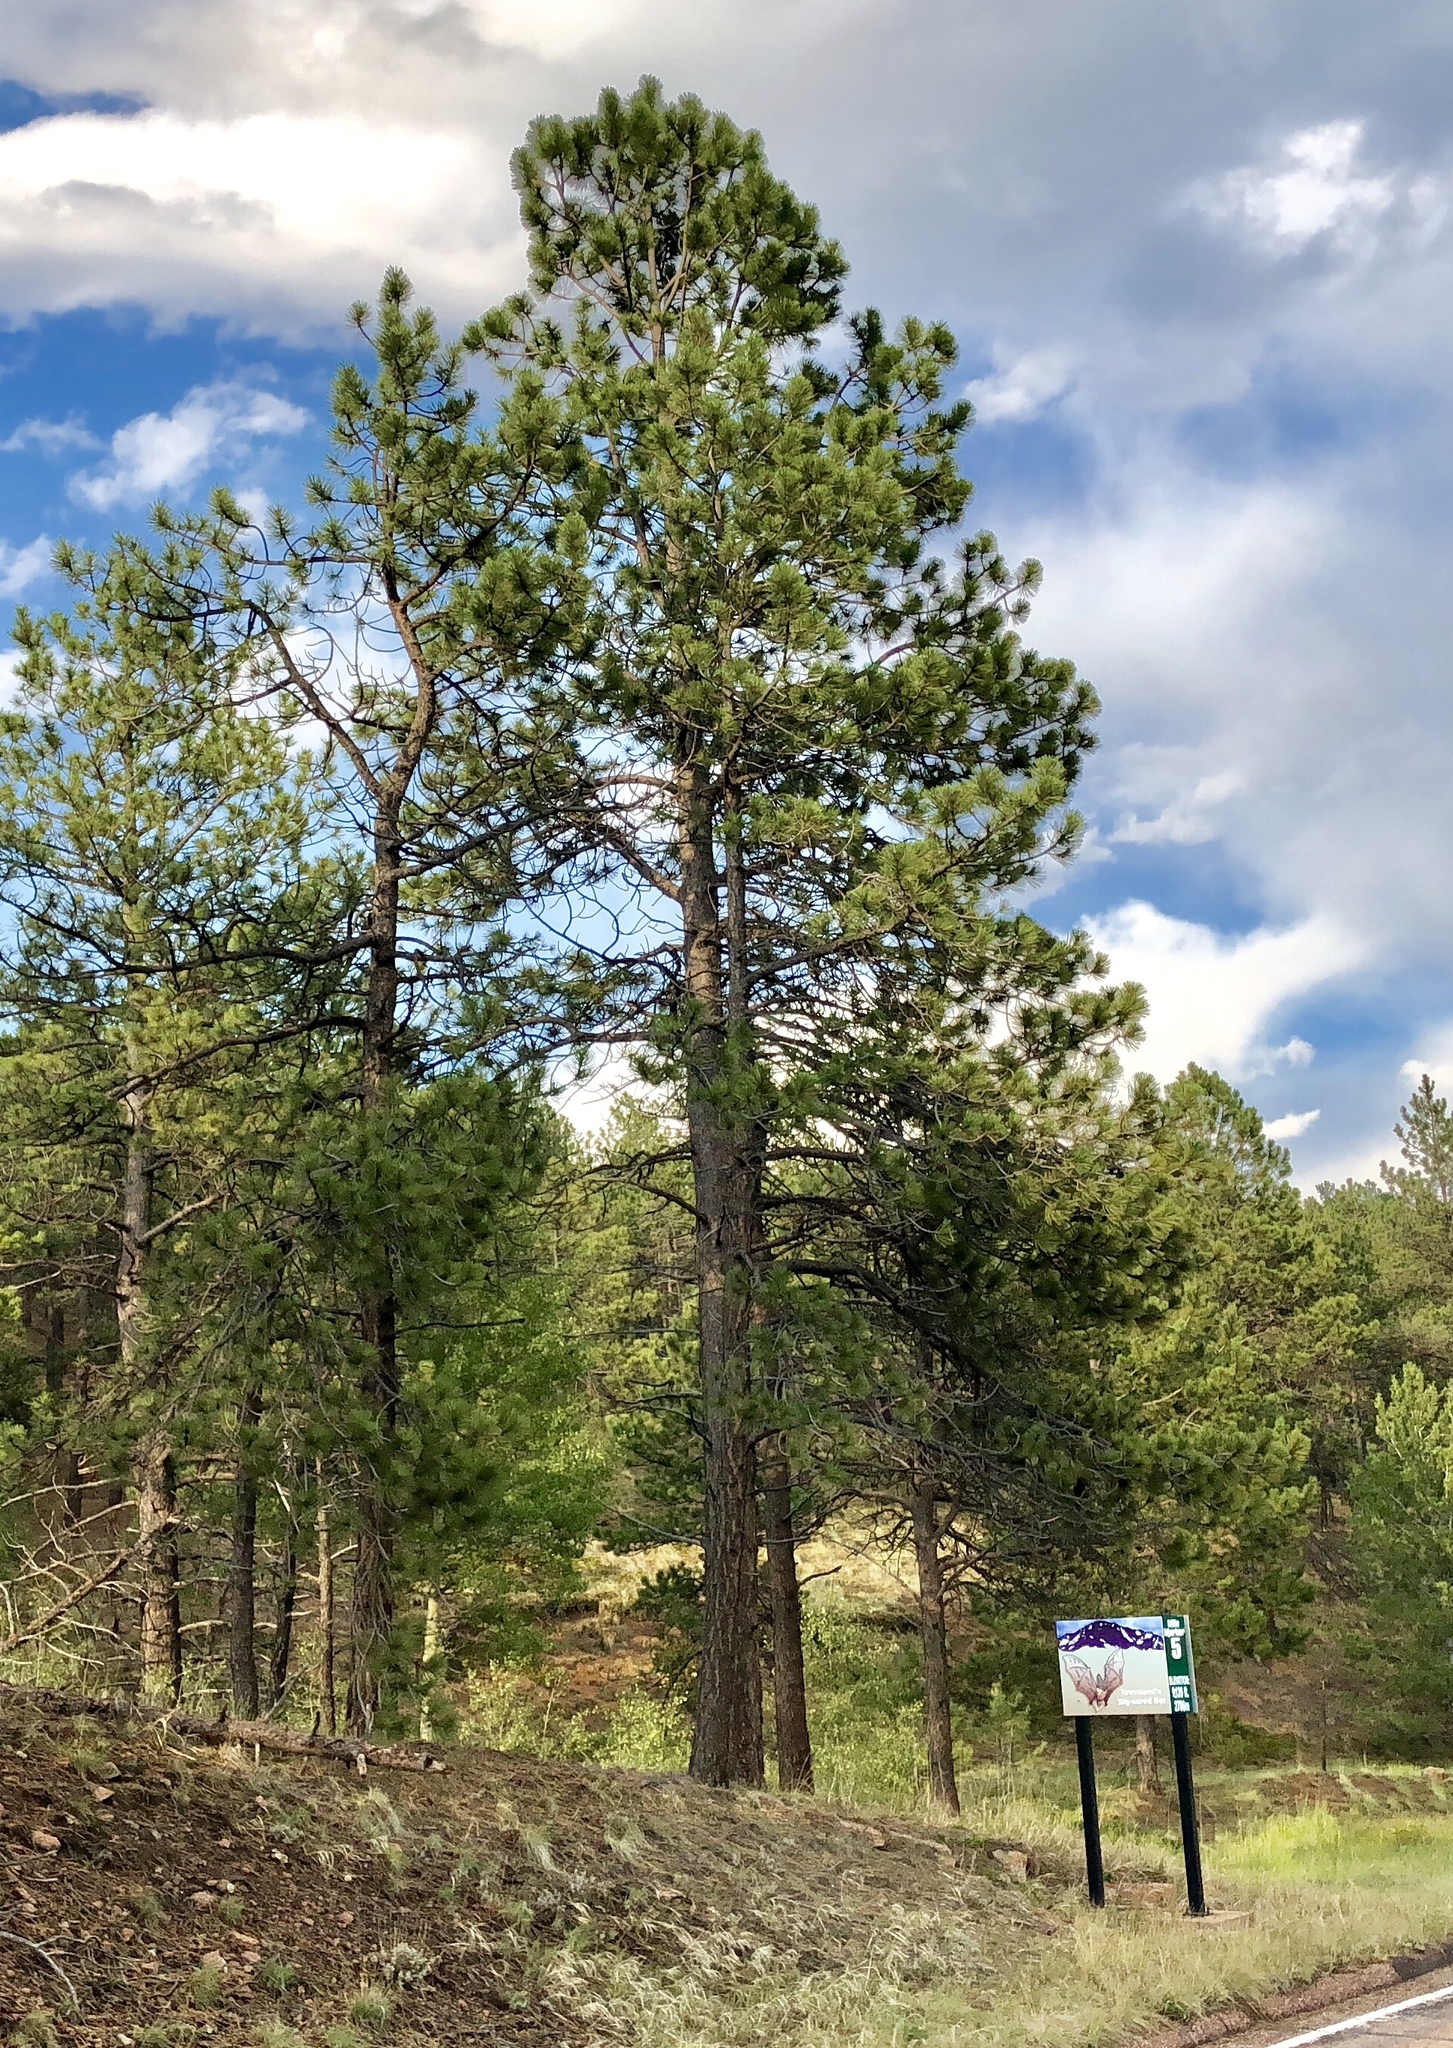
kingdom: Plantae
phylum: Tracheophyta
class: Pinopsida
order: Pinales
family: Pinaceae
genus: Pinus
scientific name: Pinus ponderosa
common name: Western yellow-pine
